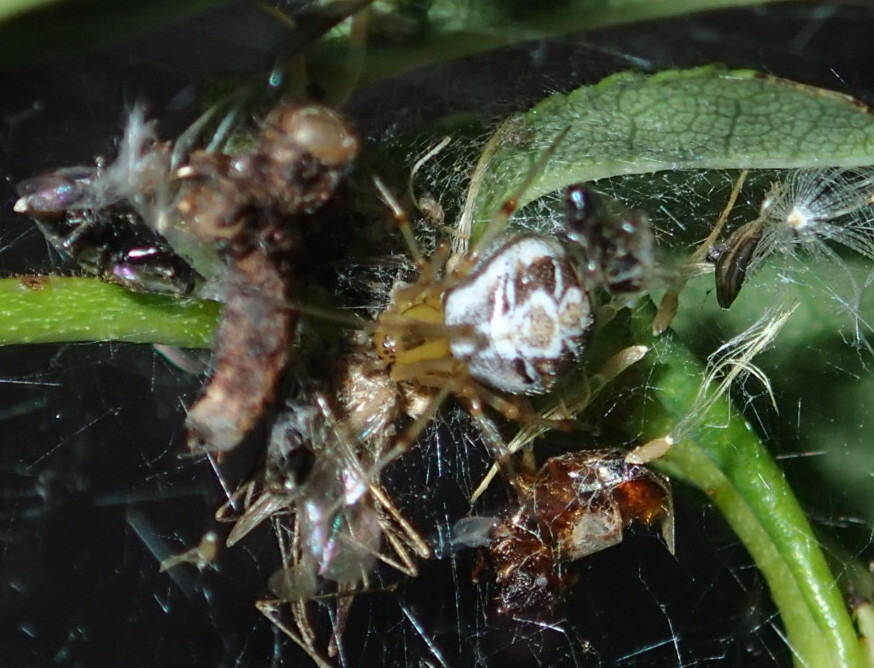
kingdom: Animalia
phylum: Arthropoda
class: Arachnida
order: Araneae
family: Theridiidae
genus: Phylloneta
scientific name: Phylloneta impressa
